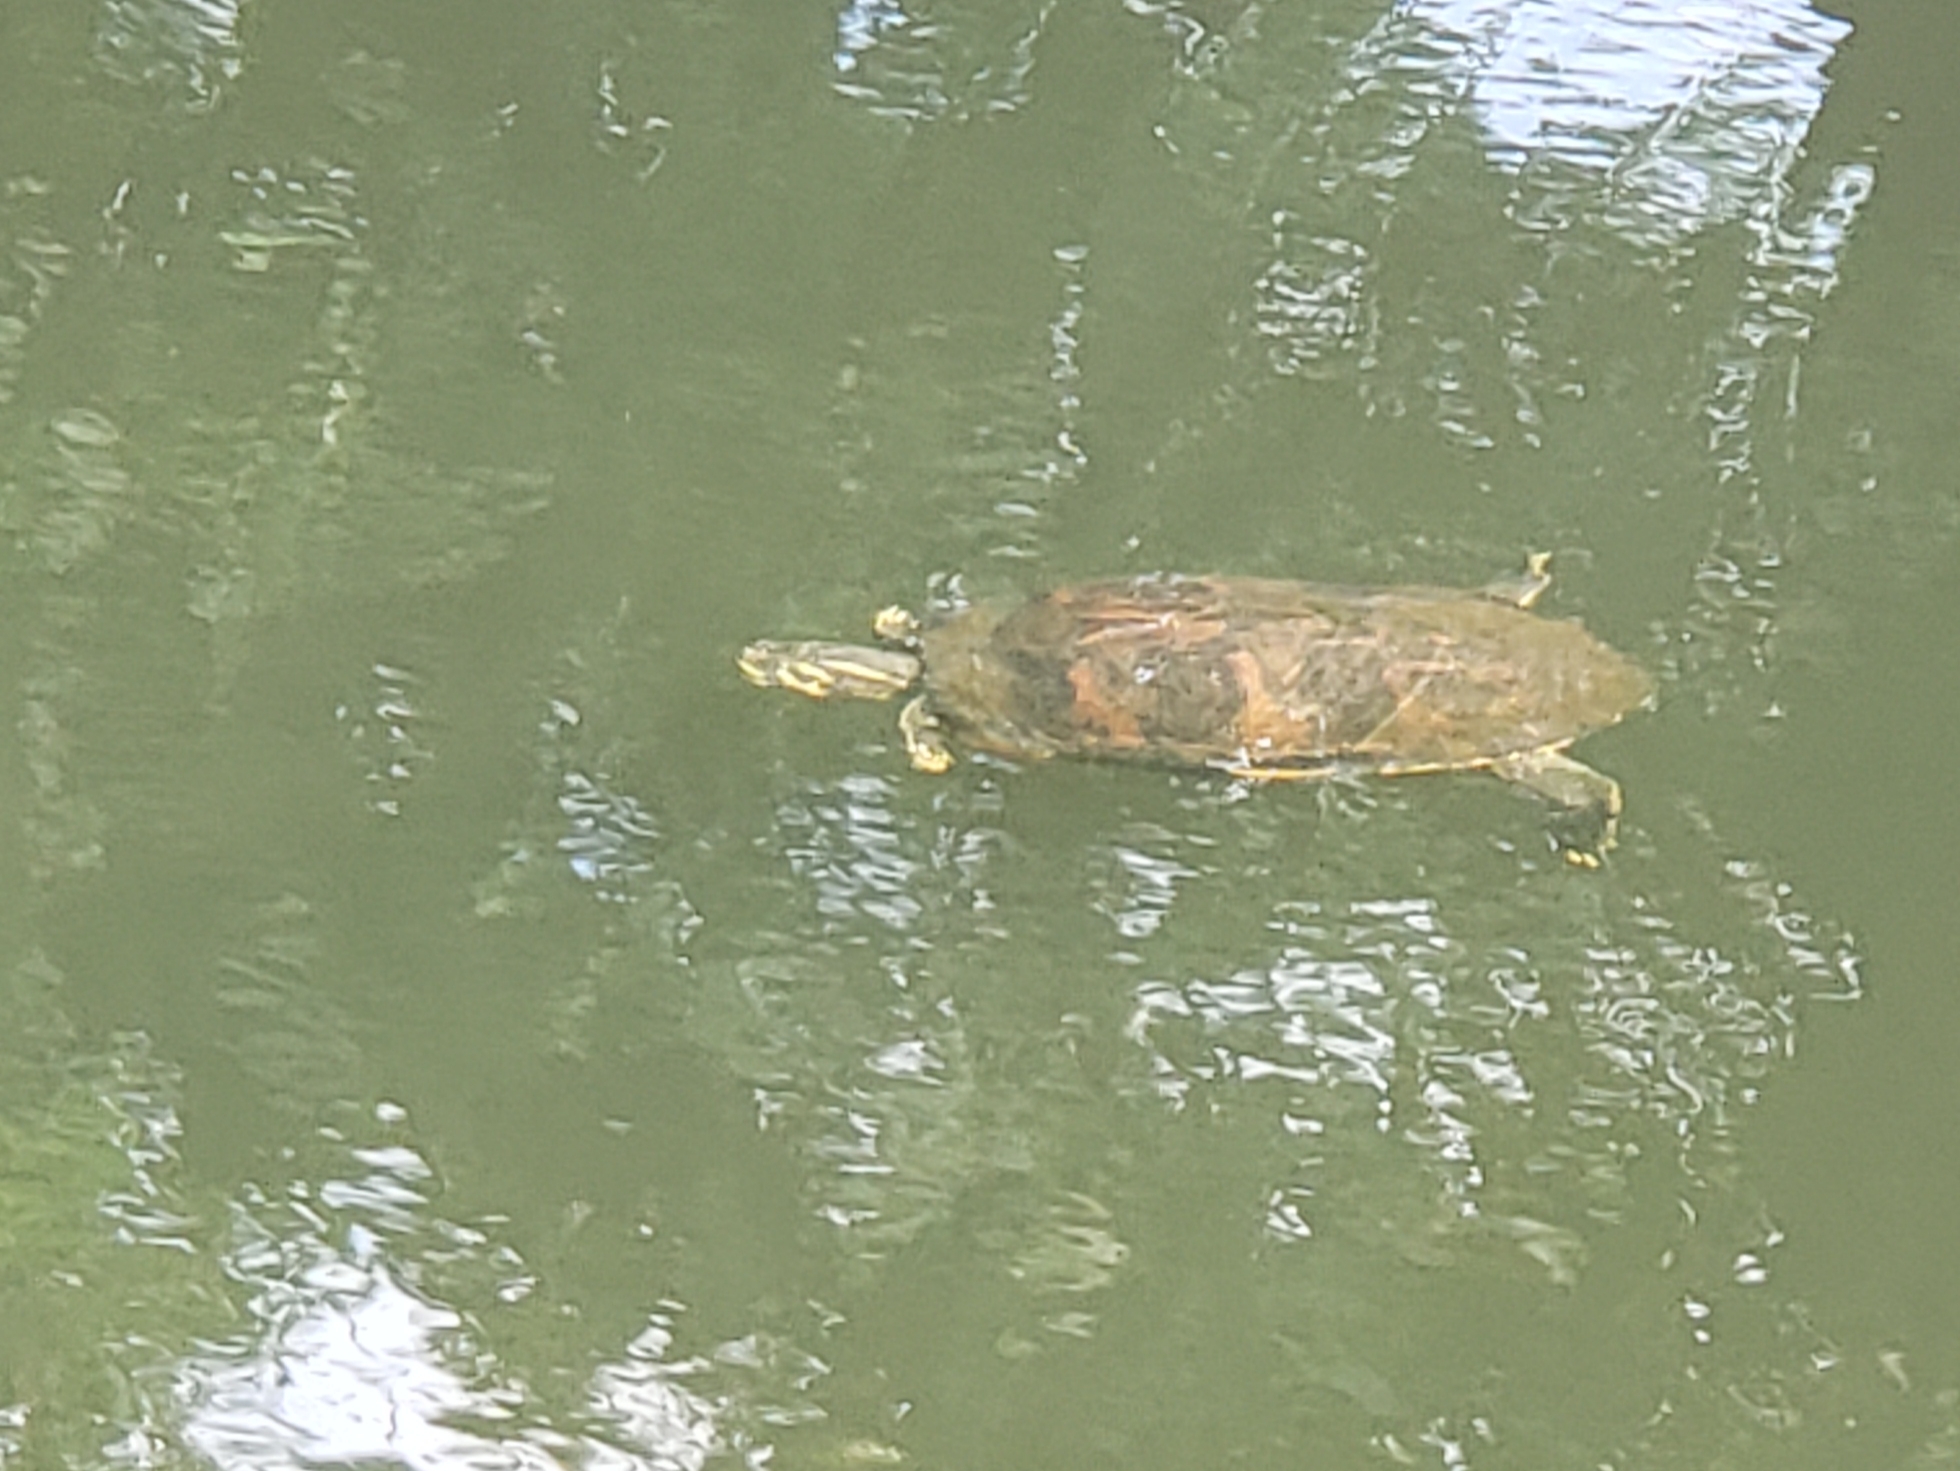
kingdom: Animalia
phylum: Chordata
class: Testudines
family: Emydidae
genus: Pseudemys
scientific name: Pseudemys nelsoni
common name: Florida red-bellied turtle
